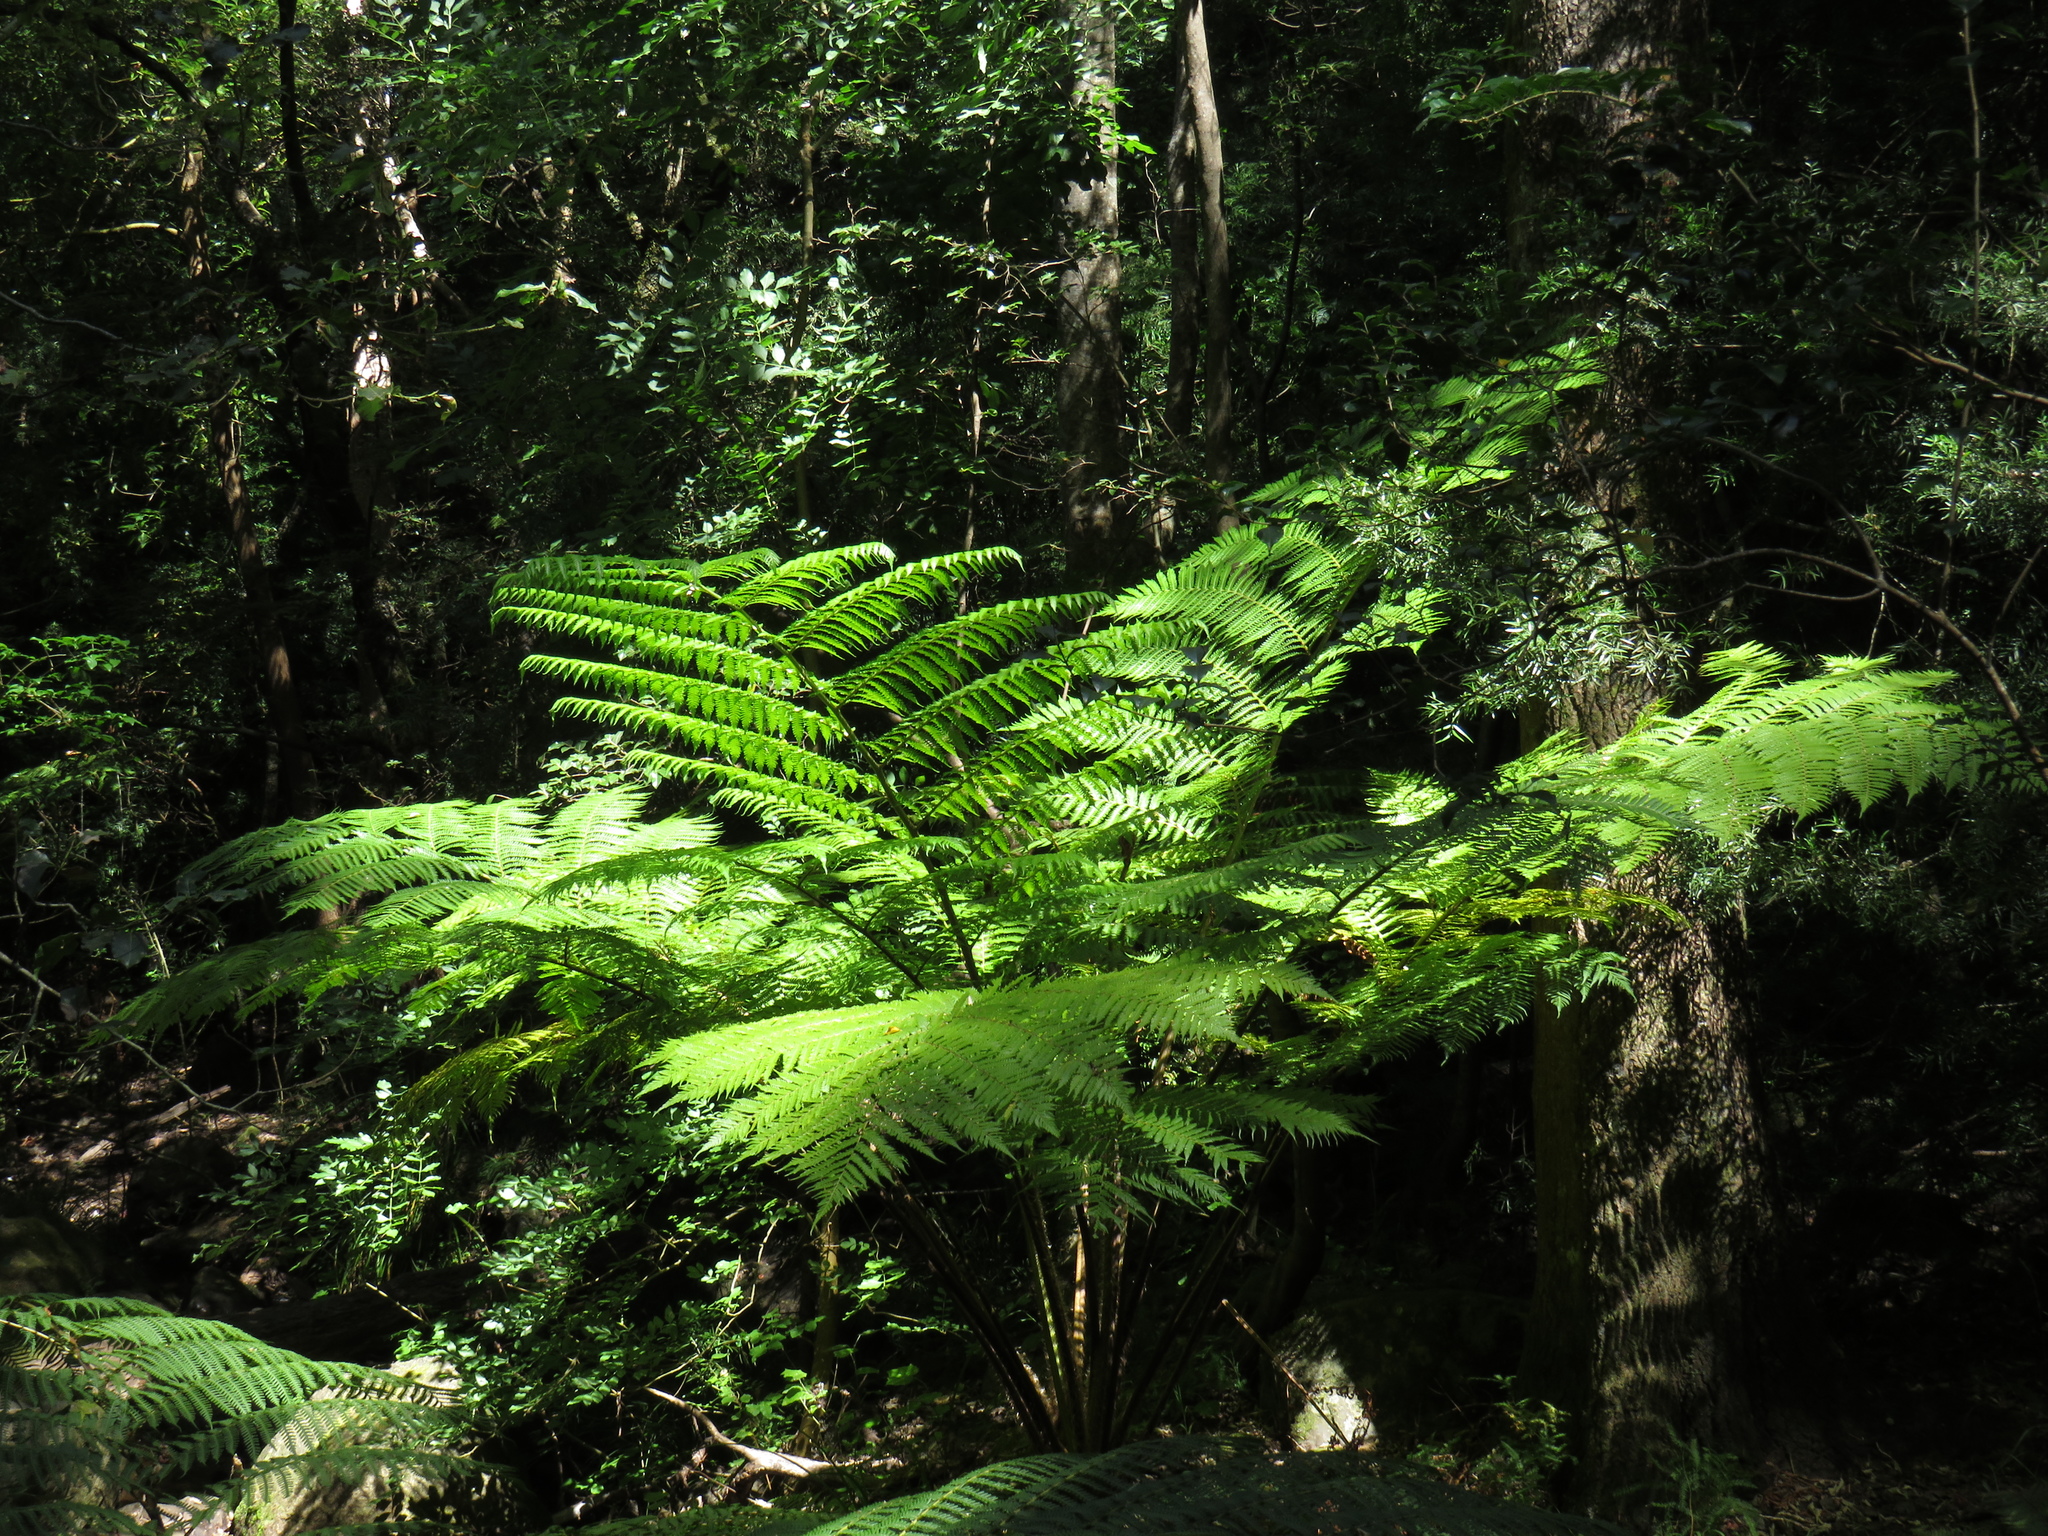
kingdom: Plantae
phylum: Tracheophyta
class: Polypodiopsida
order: Cyatheales
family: Cyatheaceae
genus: Sphaeropteris
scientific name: Sphaeropteris cooperi
